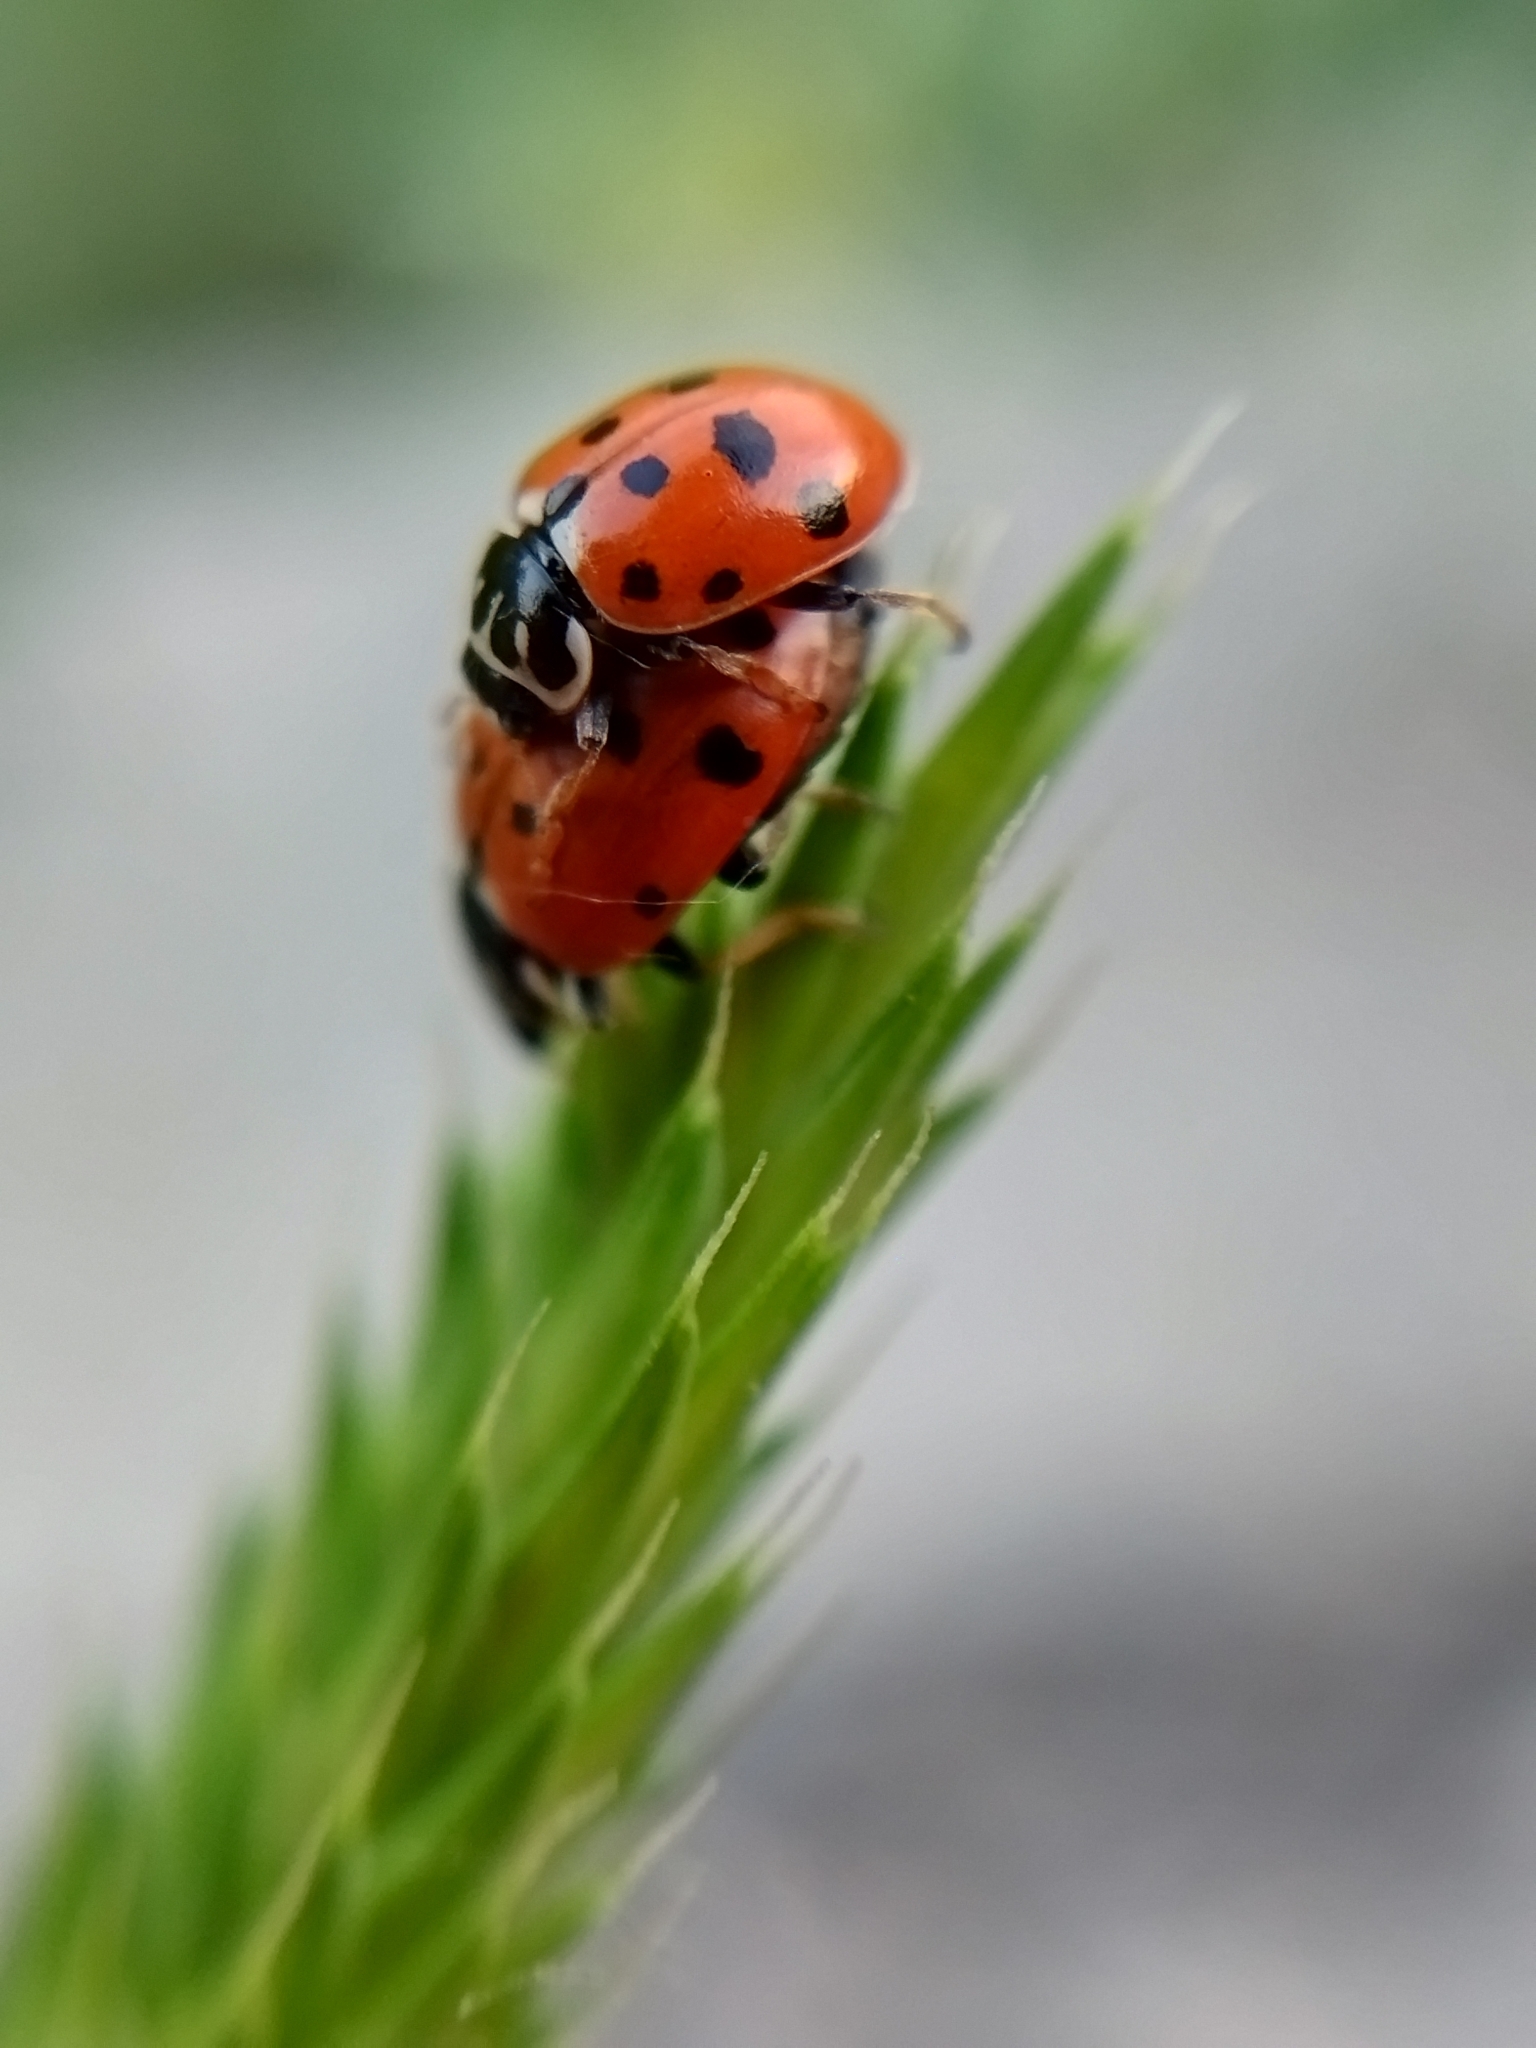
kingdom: Animalia
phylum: Arthropoda
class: Insecta
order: Coleoptera
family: Coccinellidae
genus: Hippodamia
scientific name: Hippodamia variegata
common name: Ladybird beetle
